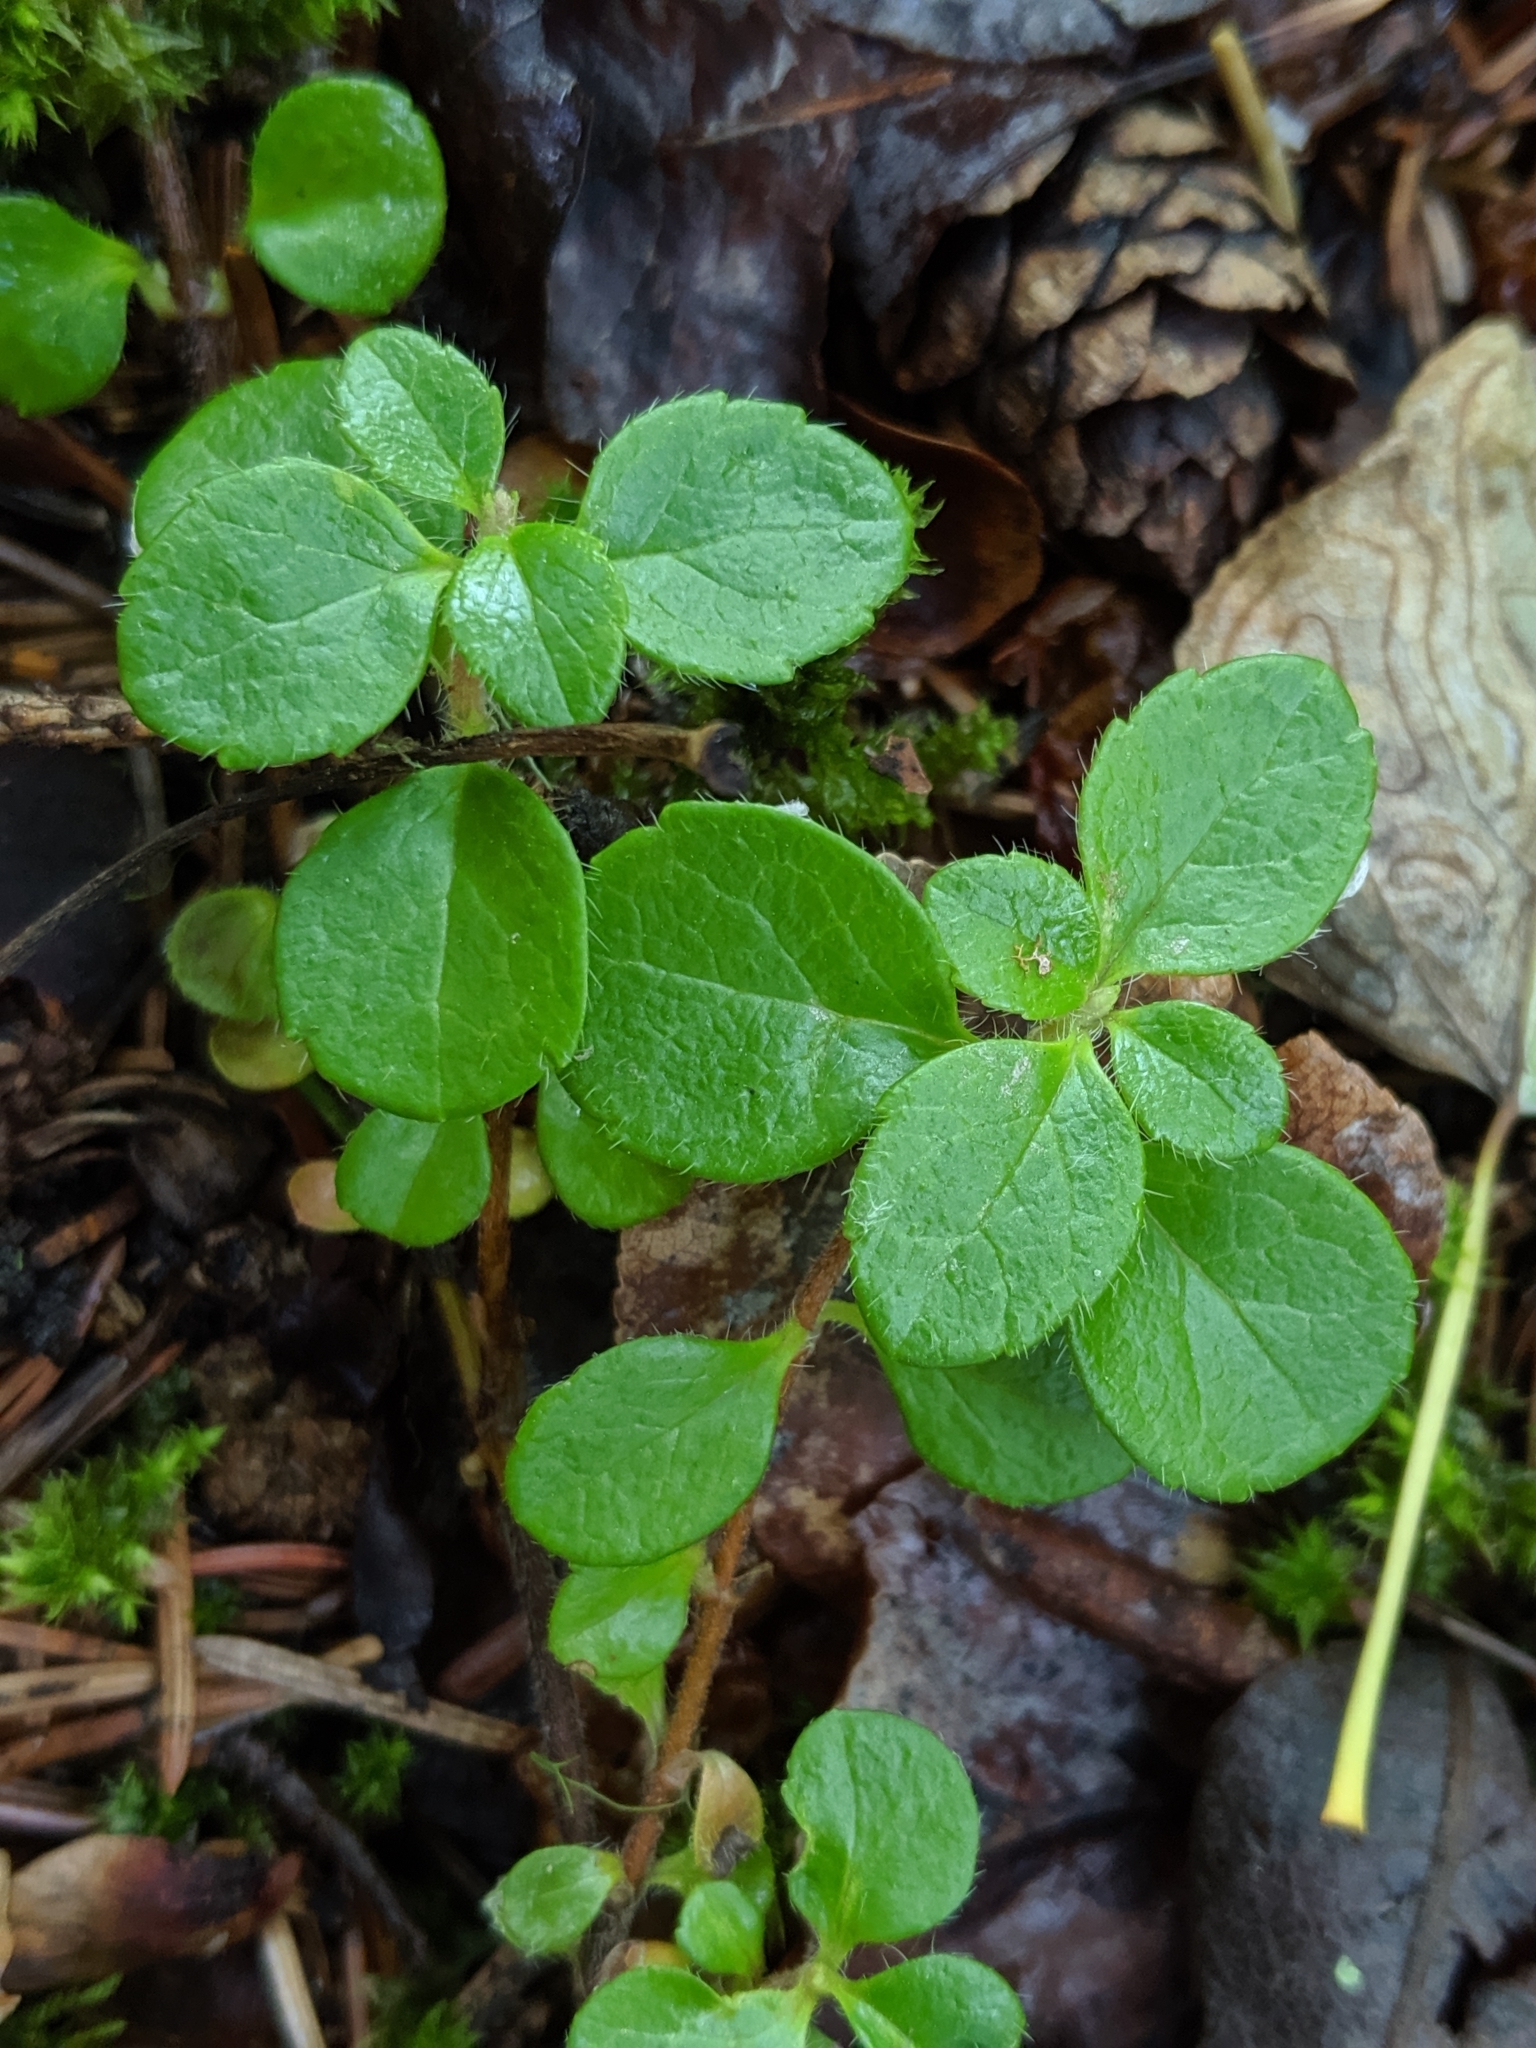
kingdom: Plantae
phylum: Tracheophyta
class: Magnoliopsida
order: Dipsacales
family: Caprifoliaceae
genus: Linnaea
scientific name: Linnaea borealis
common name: Twinflower
